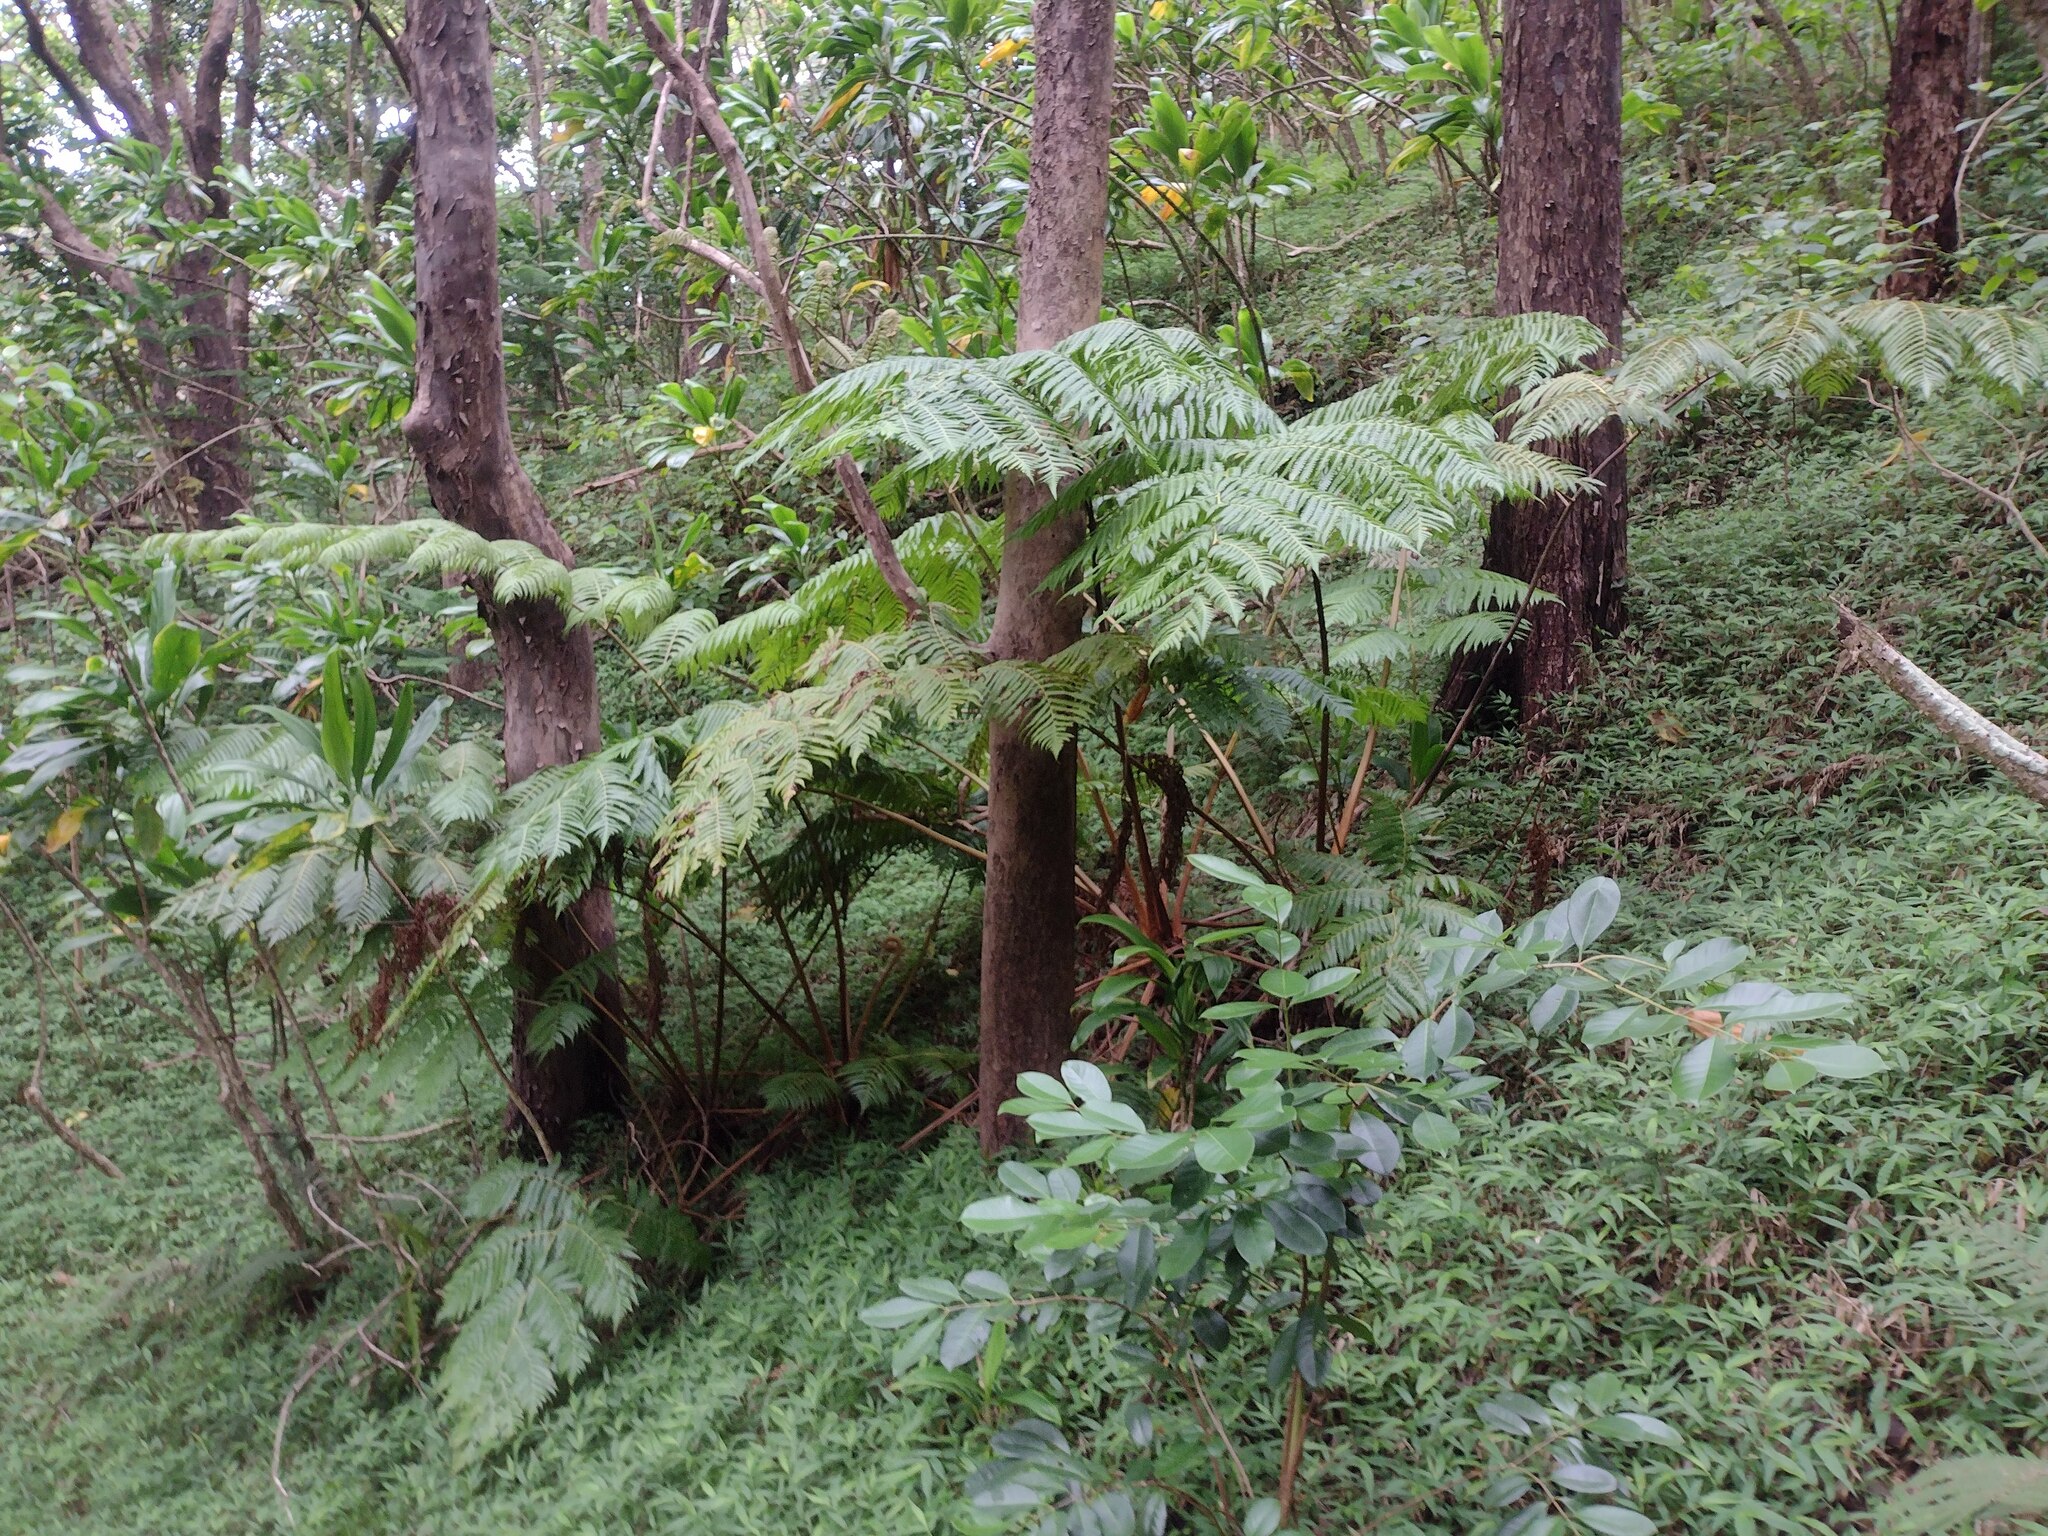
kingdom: Plantae
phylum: Tracheophyta
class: Polypodiopsida
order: Cyatheales
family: Cibotiaceae
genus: Cibotium
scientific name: Cibotium chamissoi
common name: Hawaiian tree fern
